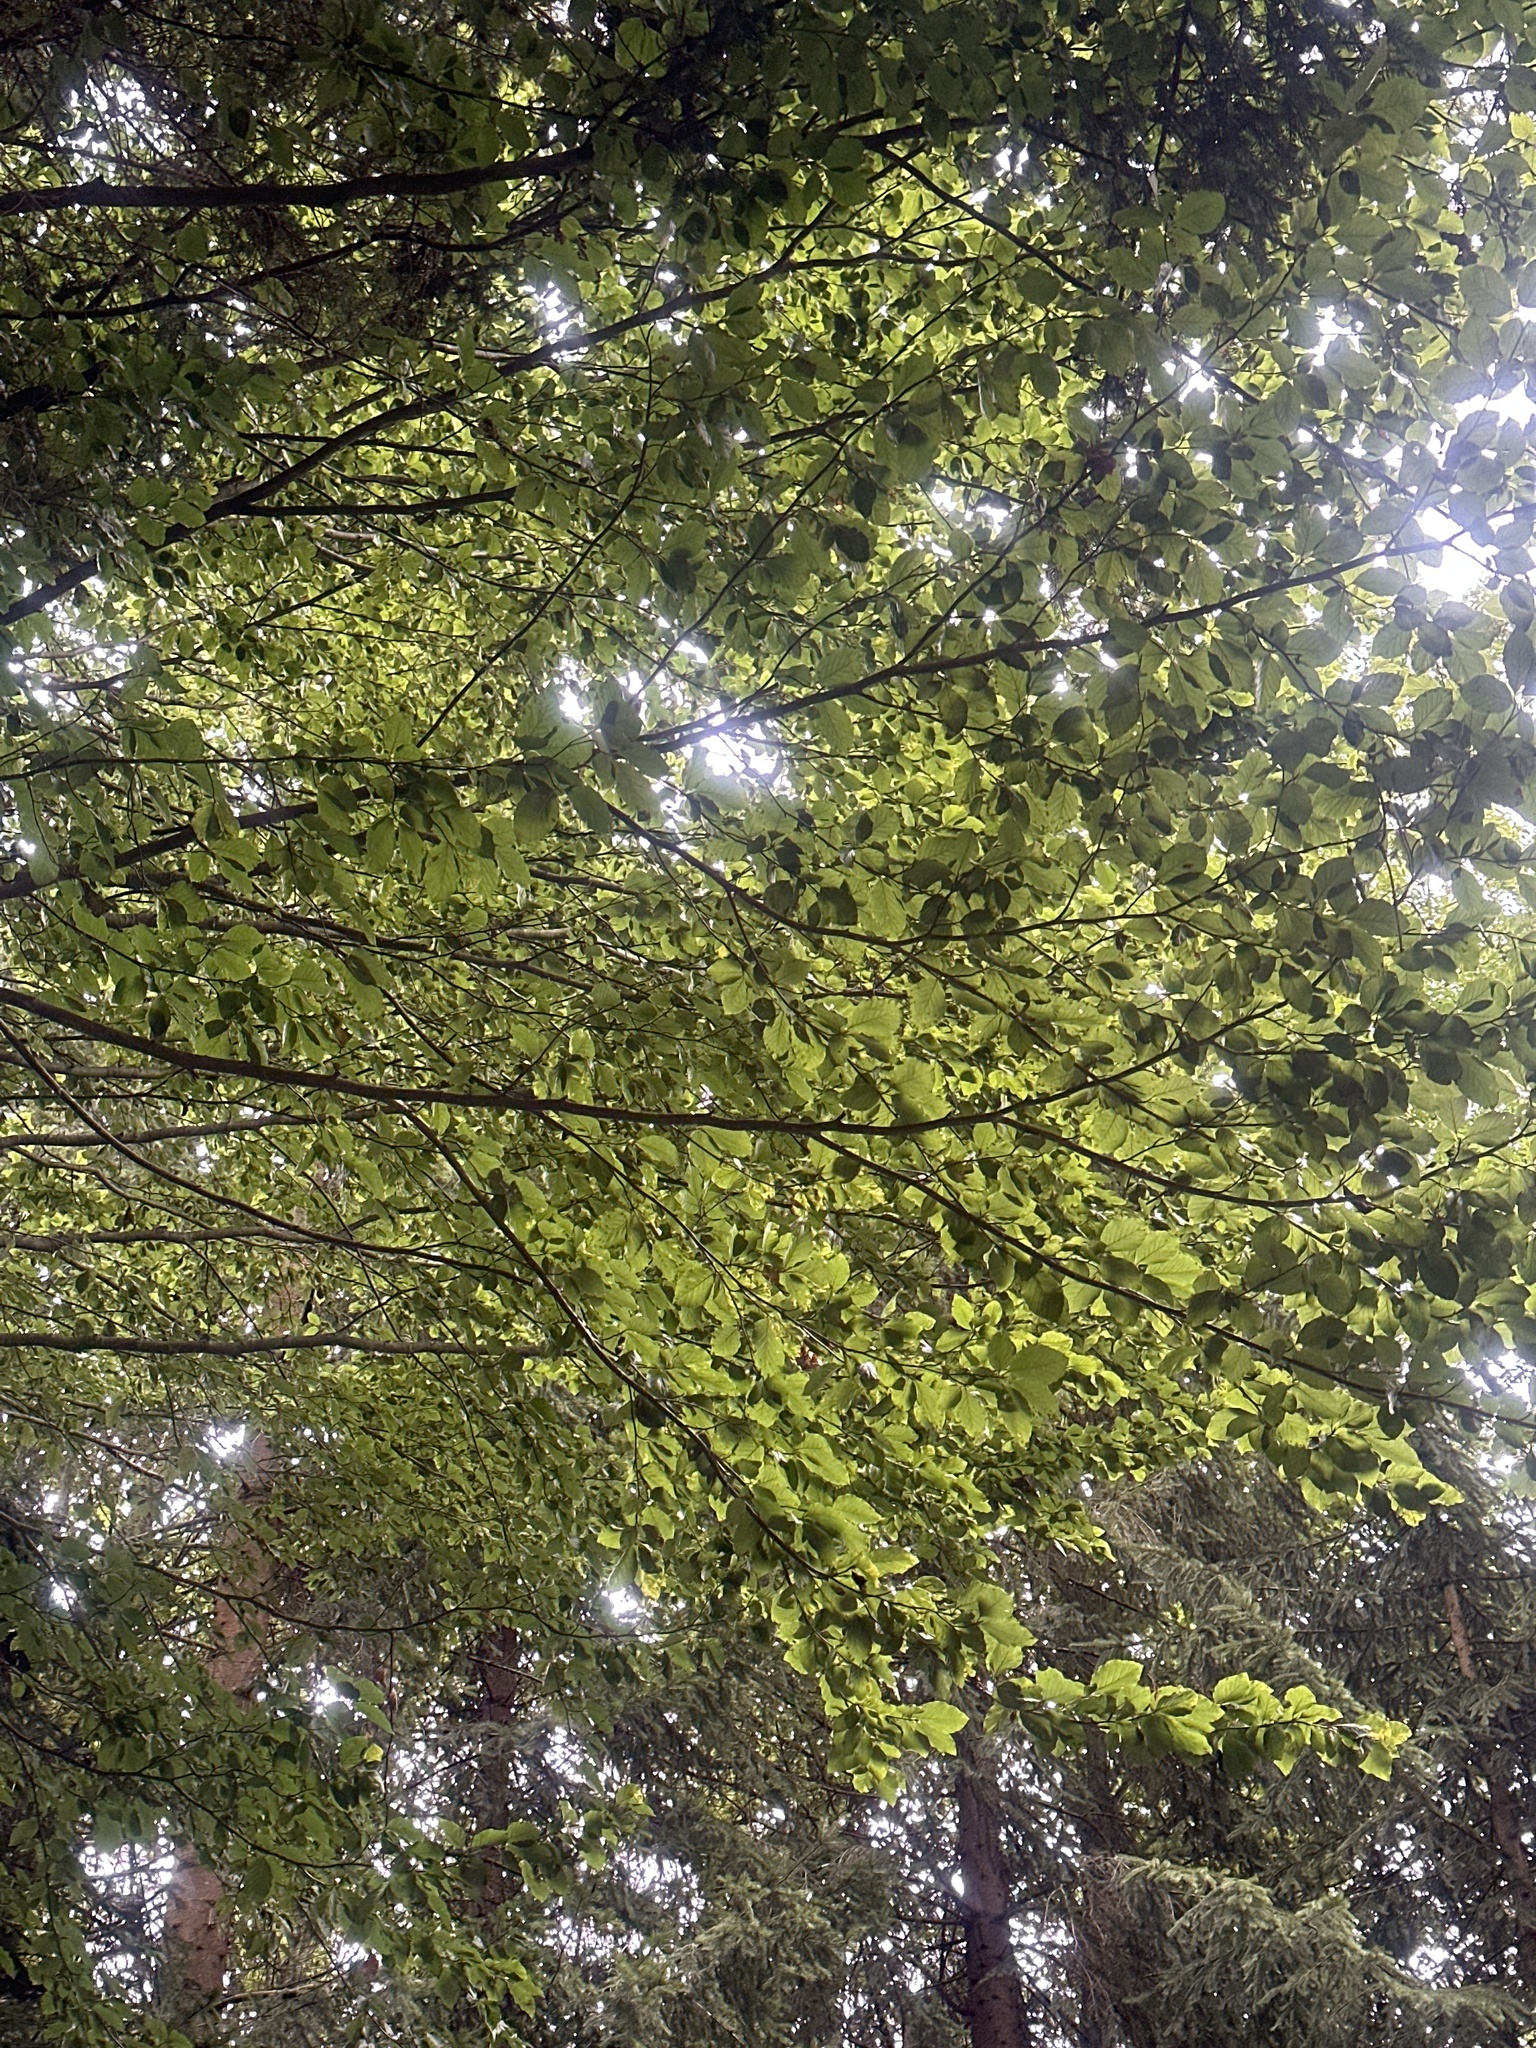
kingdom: Plantae
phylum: Tracheophyta
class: Magnoliopsida
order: Fagales
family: Fagaceae
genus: Fagus
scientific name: Fagus sylvatica
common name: Beech
